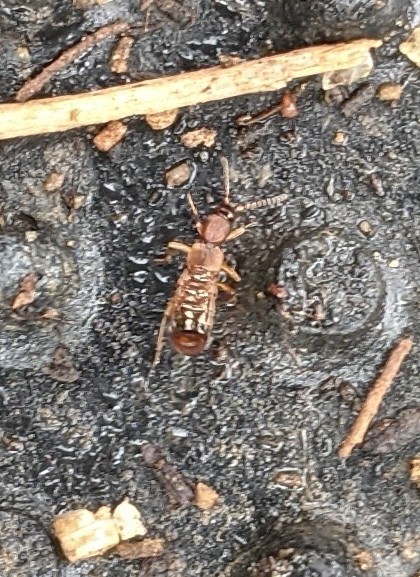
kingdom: Animalia
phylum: Arthropoda
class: Insecta
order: Dermaptera
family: Forficulidae
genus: Forficula
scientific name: Forficula
